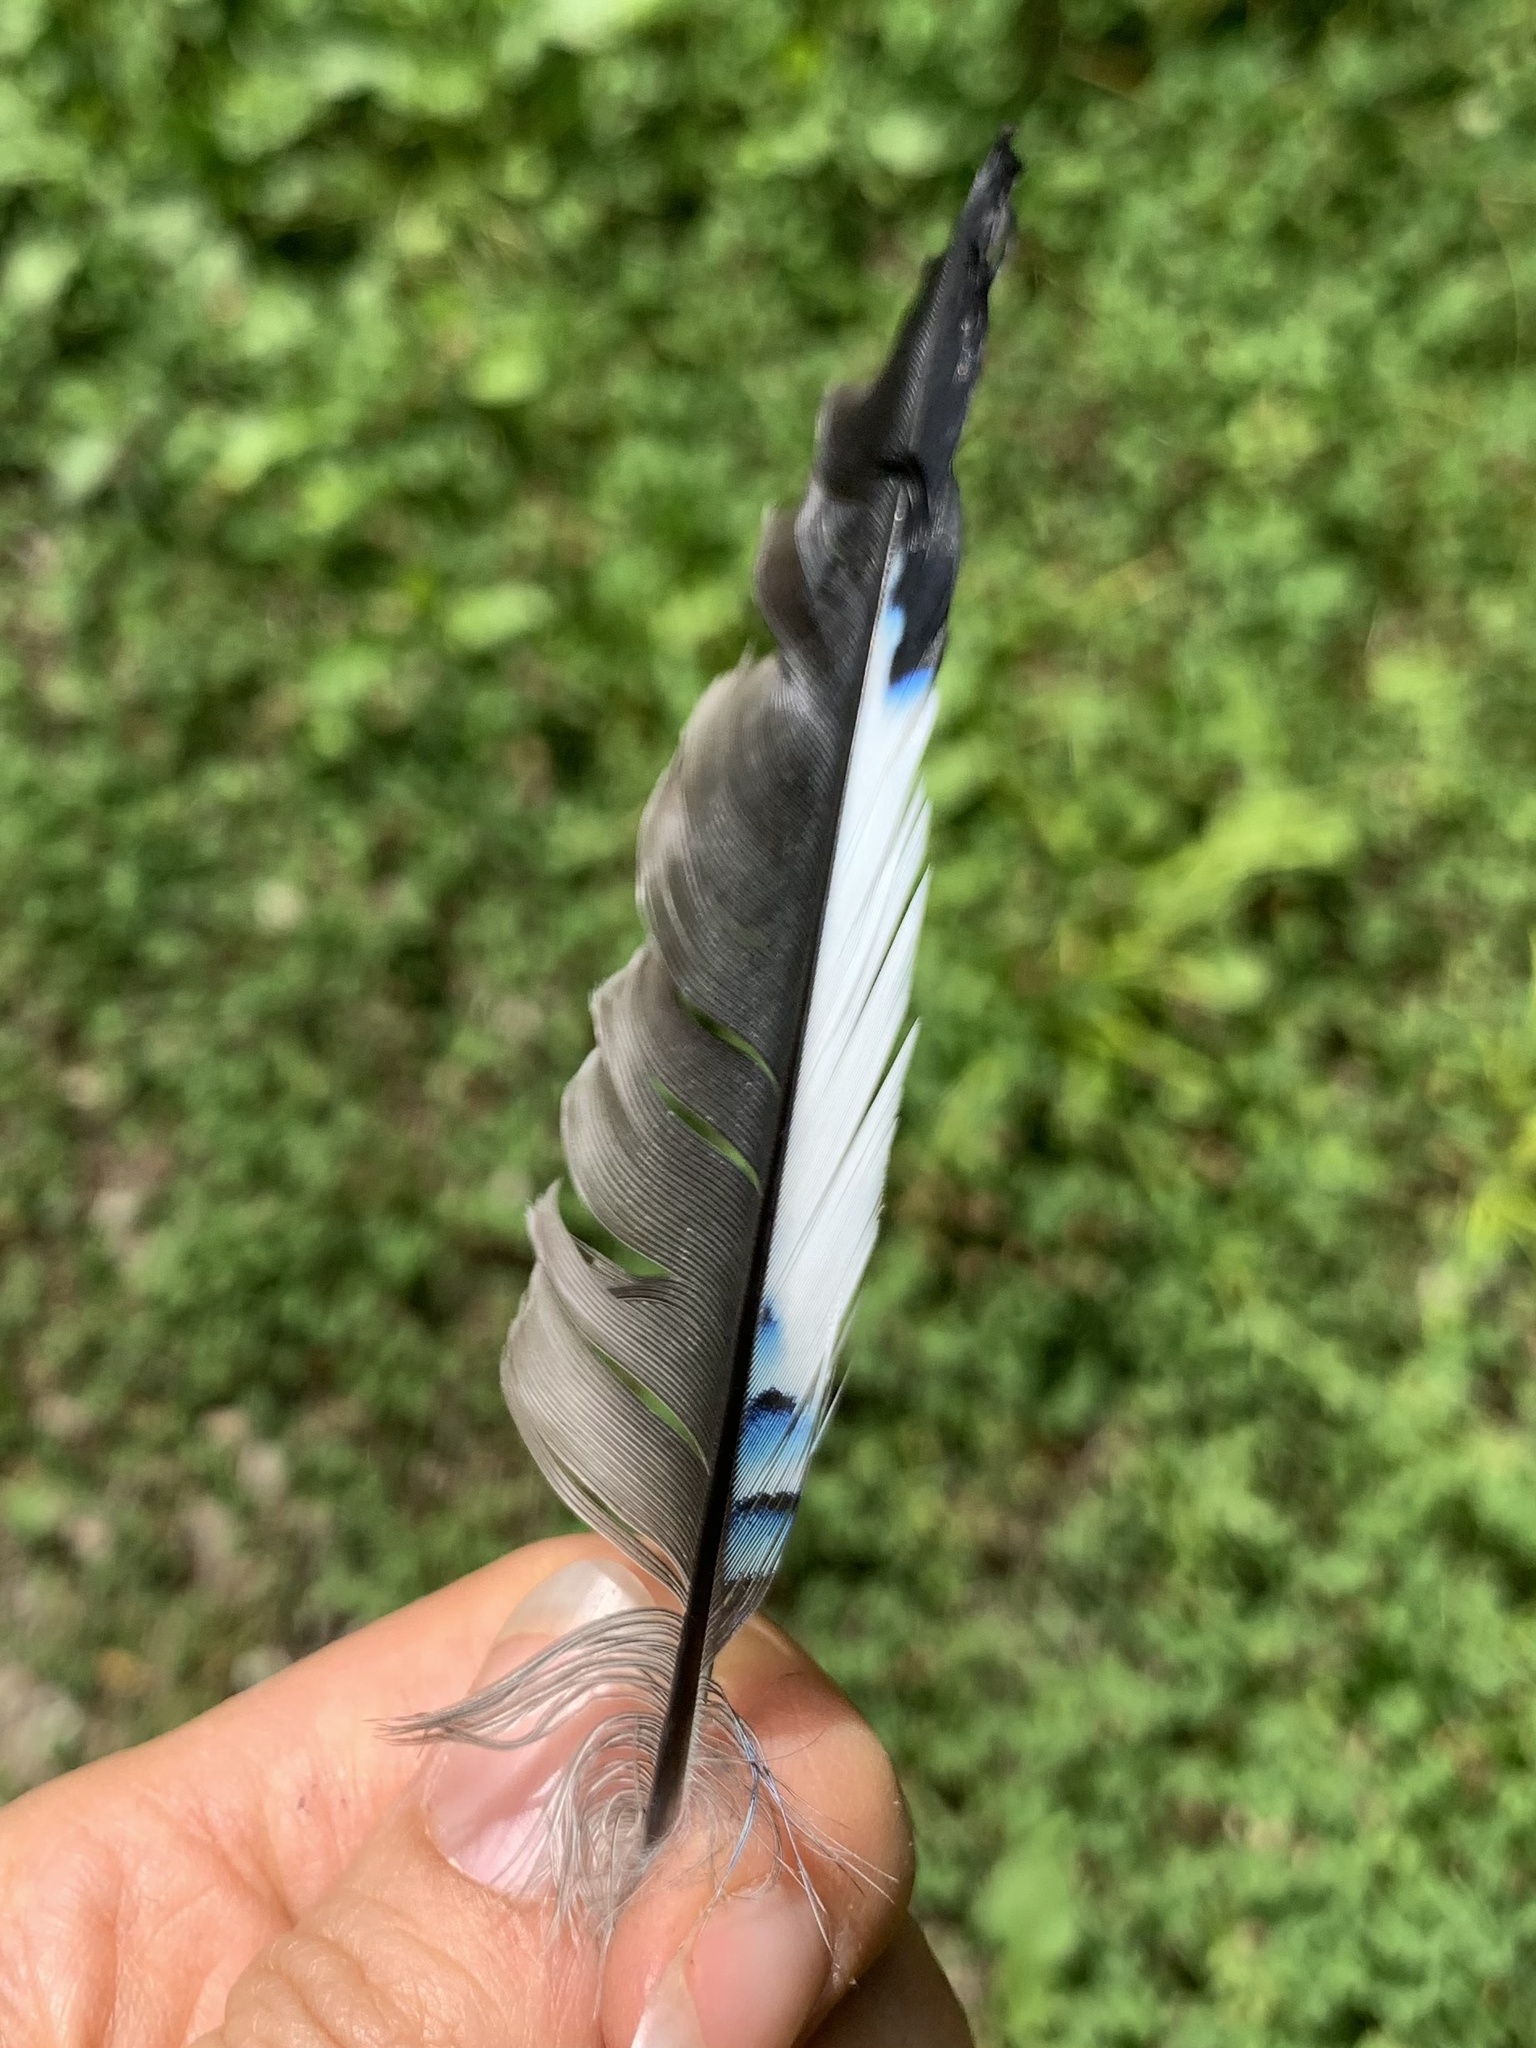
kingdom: Animalia
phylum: Chordata
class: Aves
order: Passeriformes
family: Corvidae
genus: Garrulus
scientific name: Garrulus glandarius
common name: Eurasian jay
